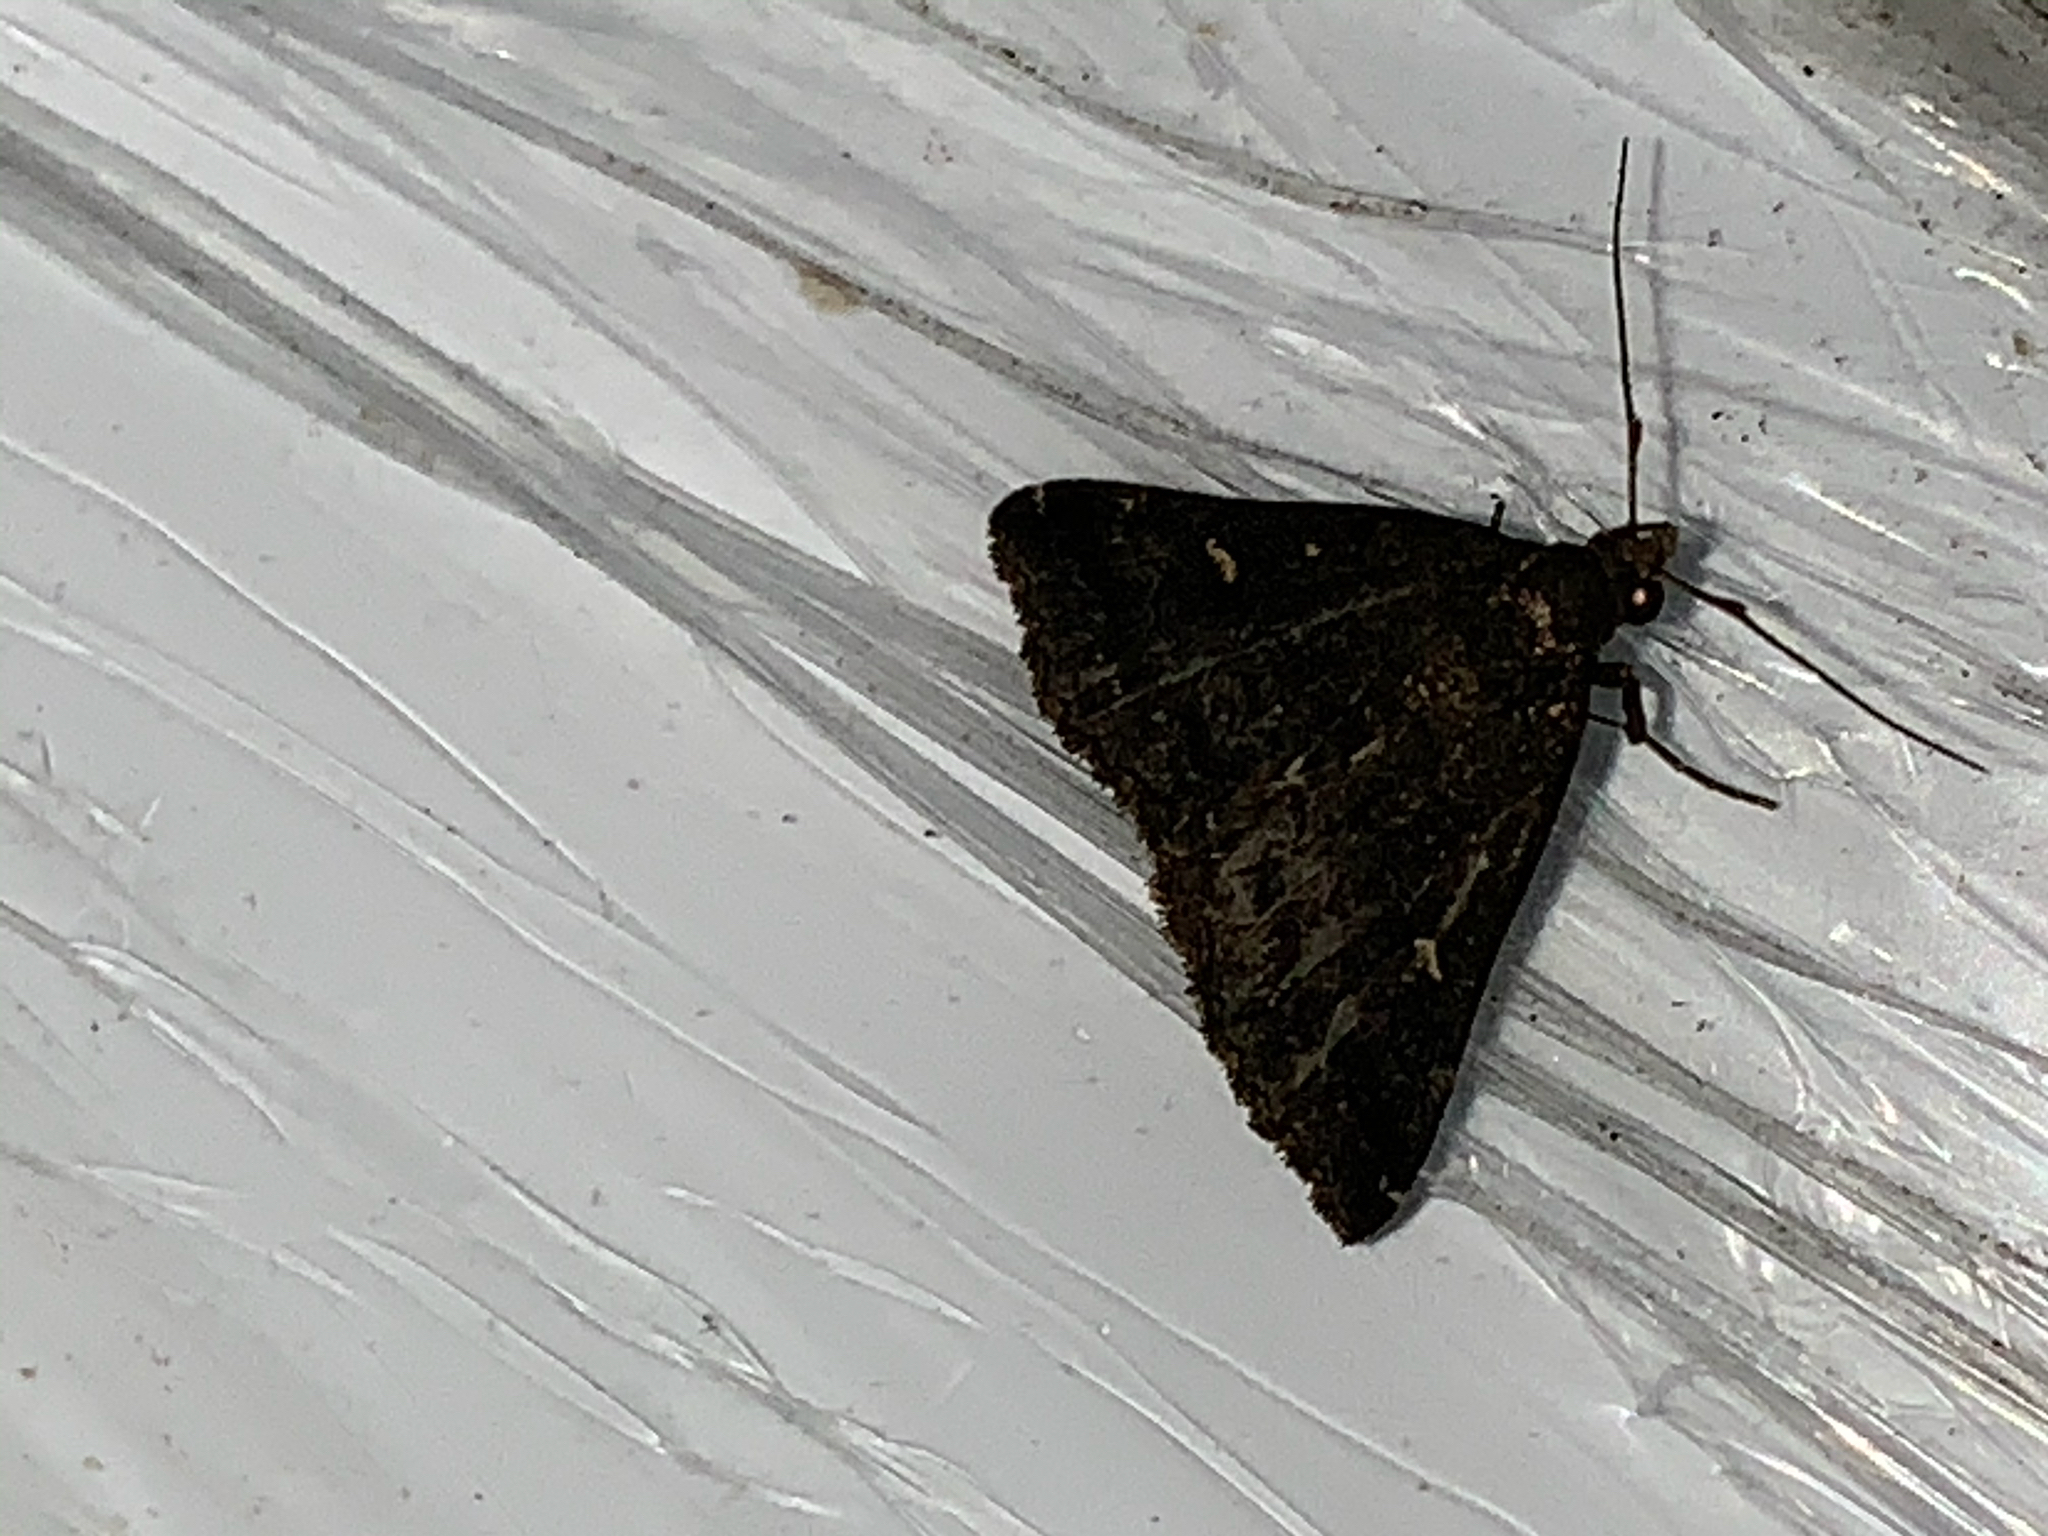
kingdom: Animalia
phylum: Arthropoda
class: Insecta
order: Lepidoptera
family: Erebidae
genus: Tetanolita
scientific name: Tetanolita mynesalis
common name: Smoky tetanolita moth
